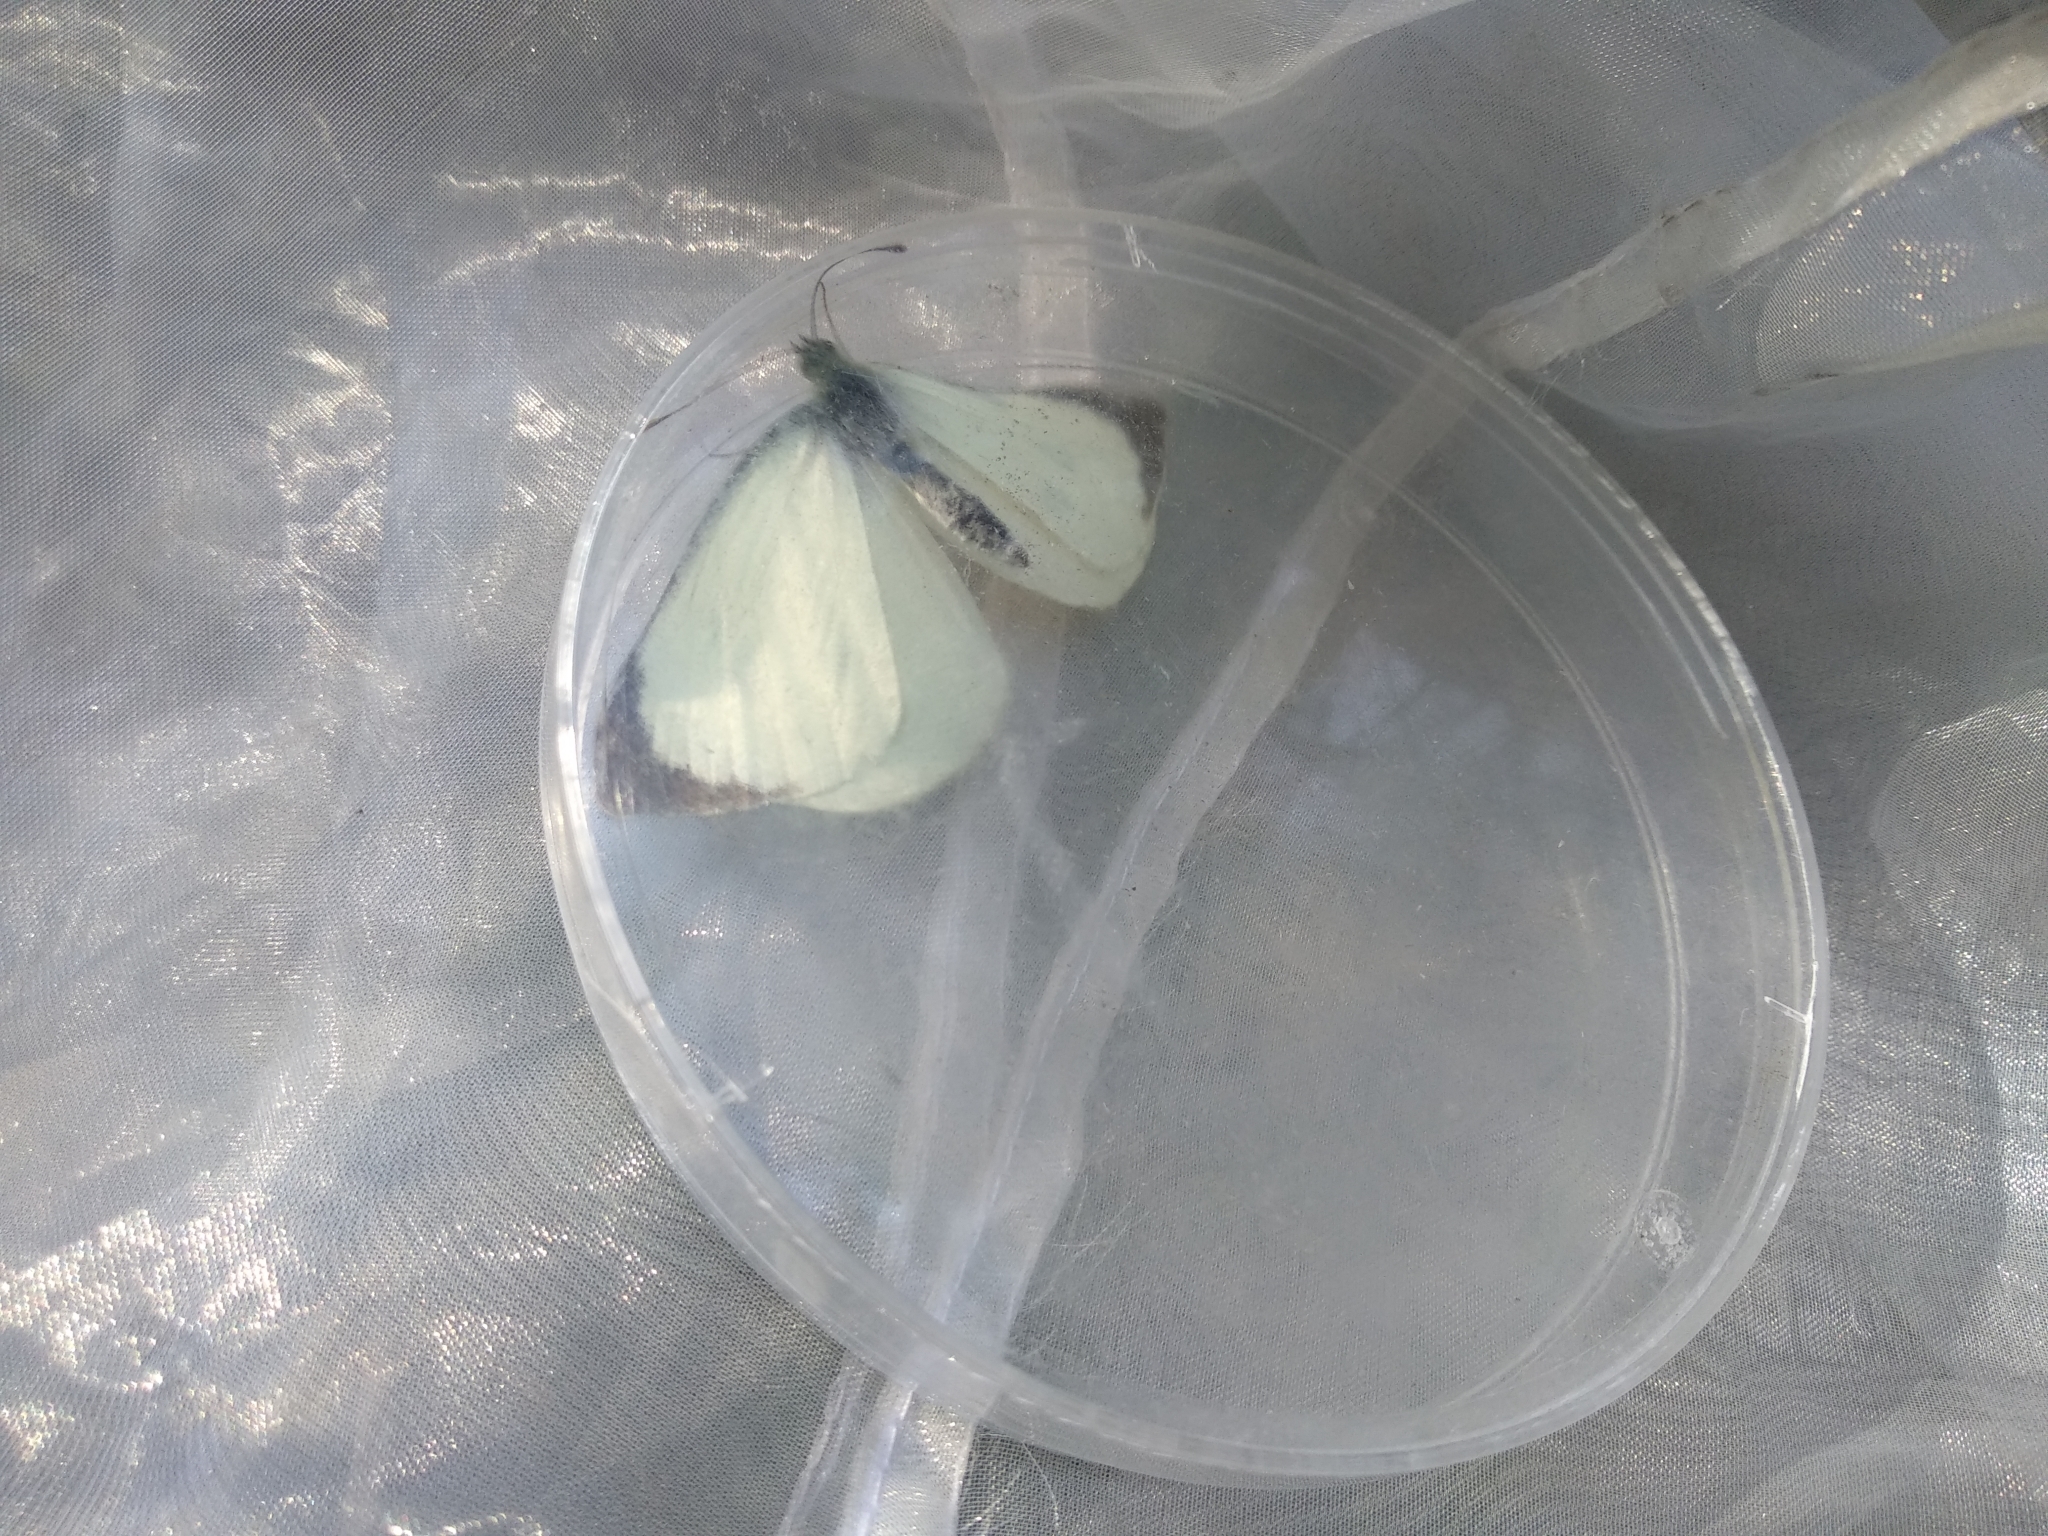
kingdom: Animalia
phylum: Arthropoda
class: Insecta
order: Lepidoptera
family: Pieridae
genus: Pieris
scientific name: Pieris brassicae
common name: Large white
